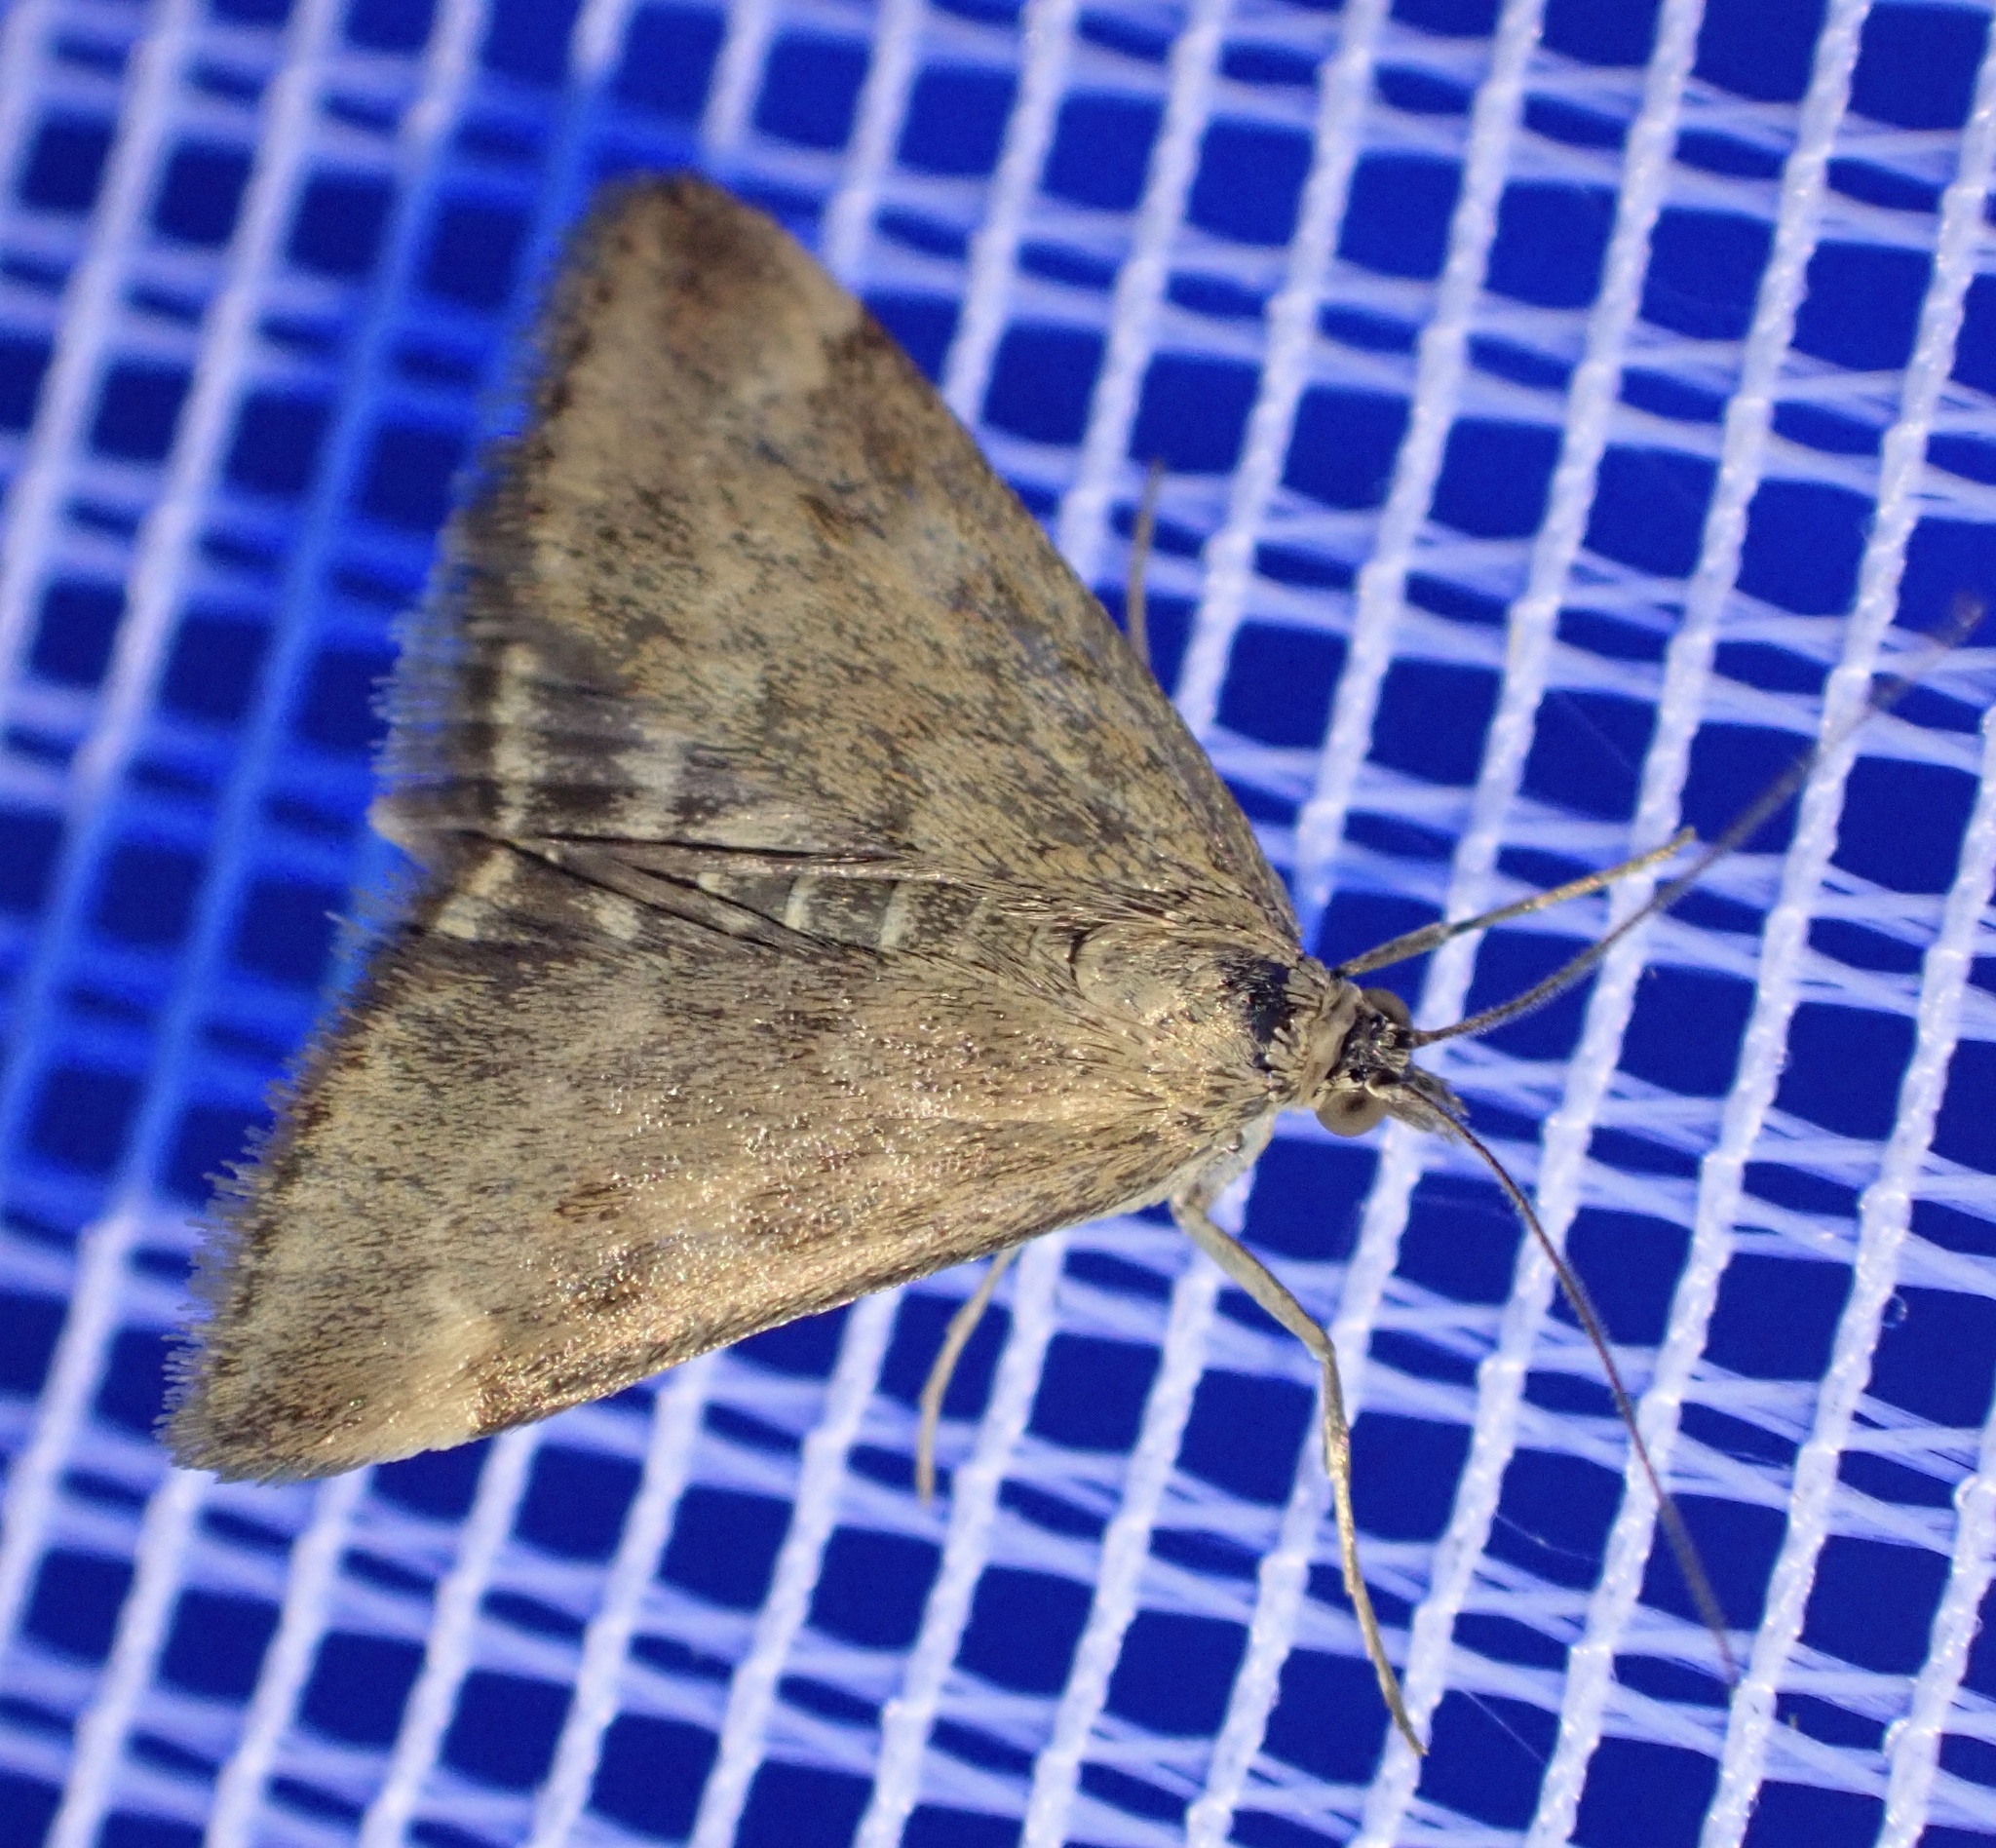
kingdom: Animalia
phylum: Arthropoda
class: Insecta
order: Lepidoptera
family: Crambidae
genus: Pyrausta
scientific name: Pyrausta despicata
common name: Straw-barred pearl
